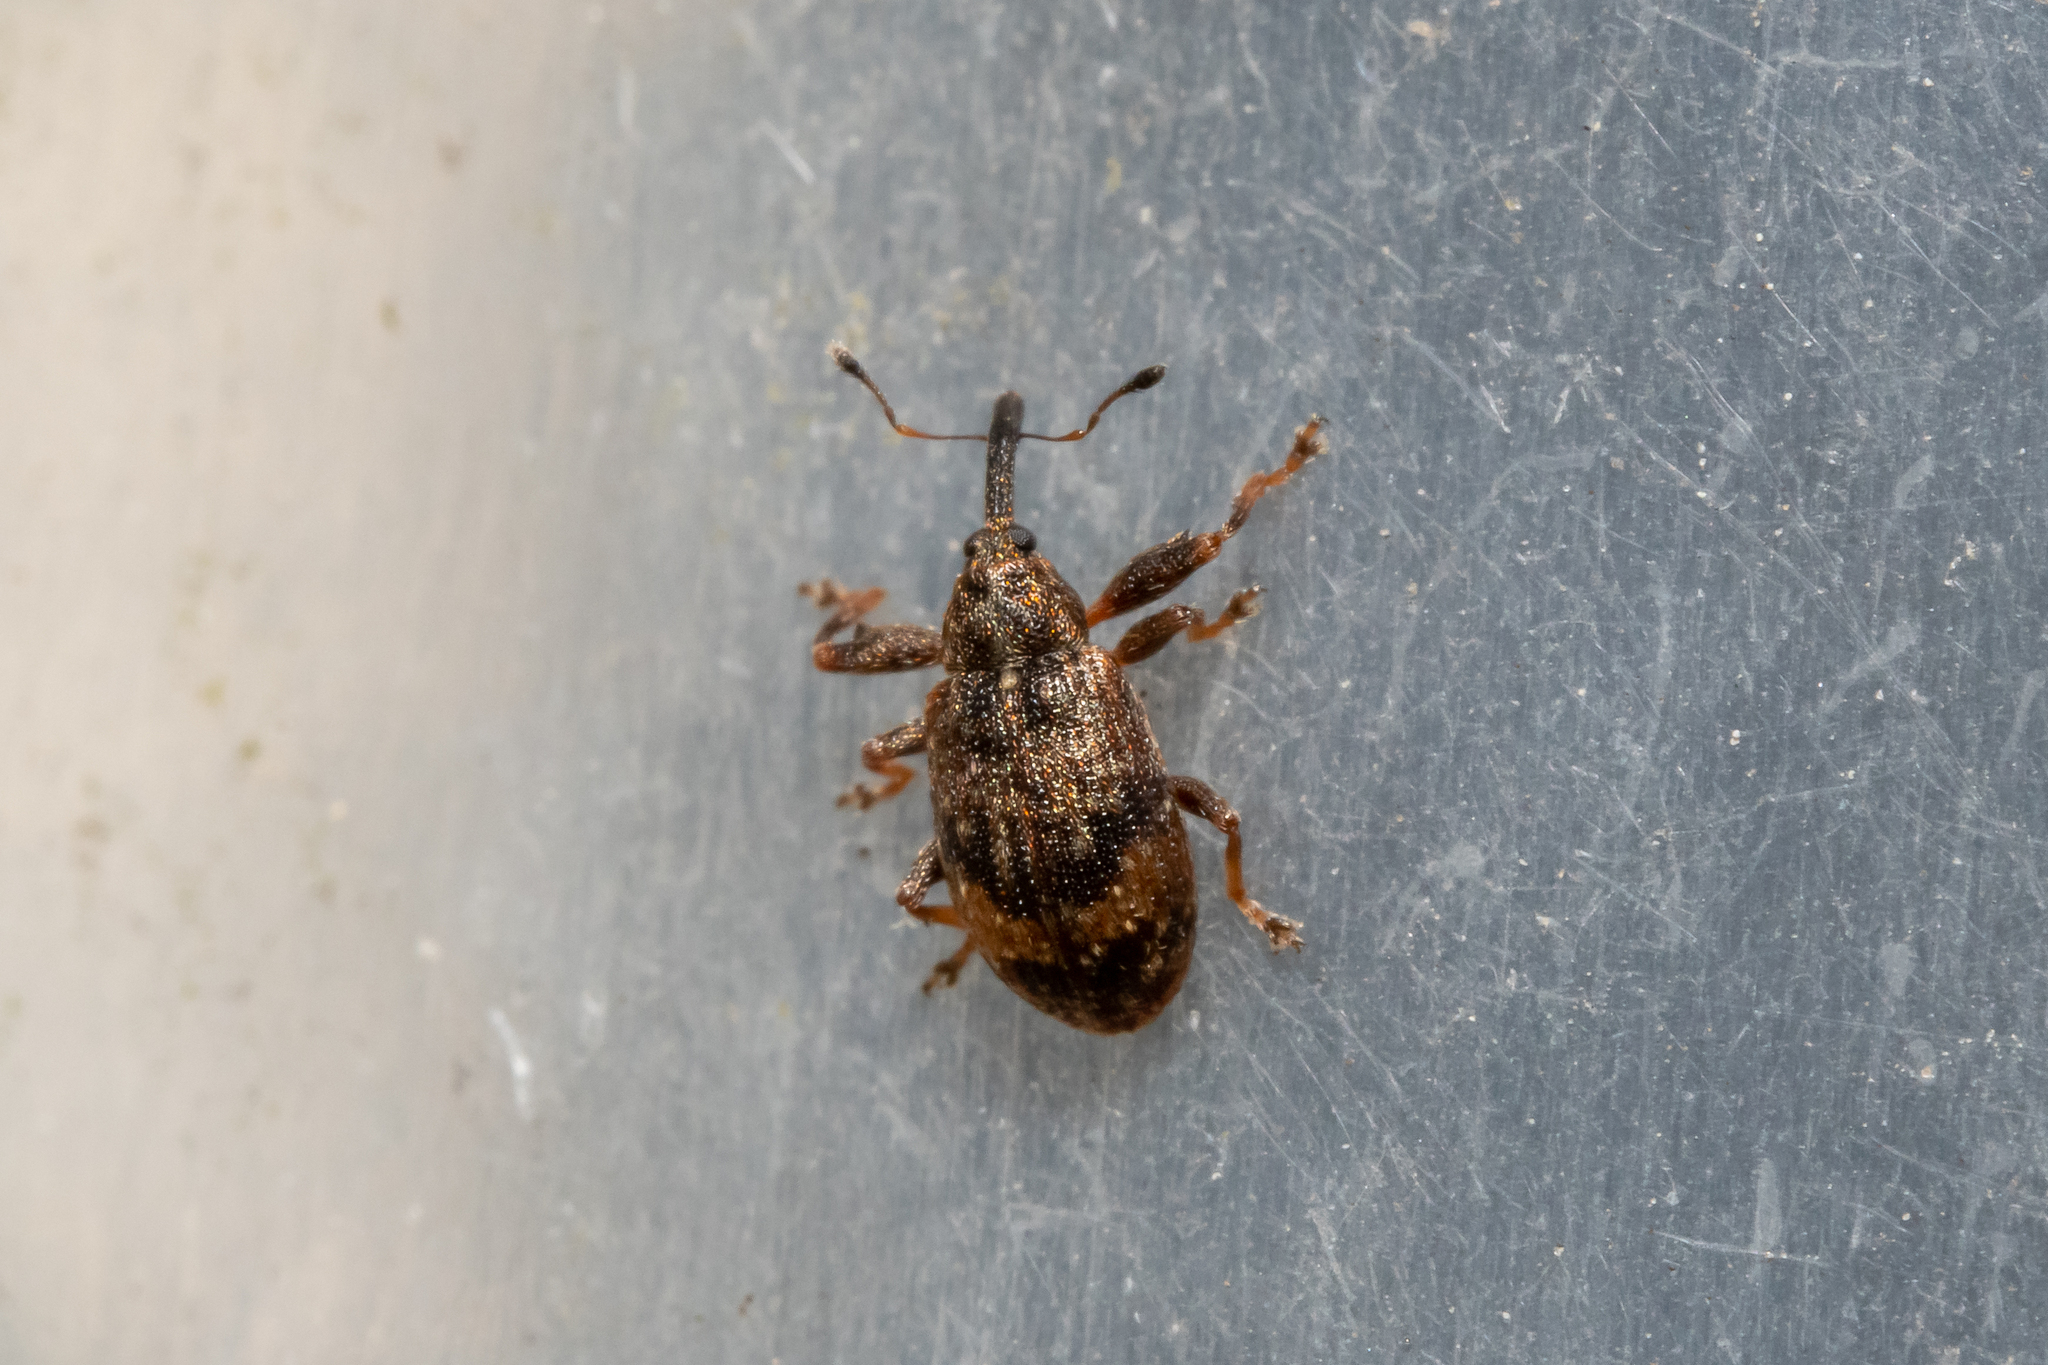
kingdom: Animalia
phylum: Arthropoda
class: Insecta
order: Coleoptera
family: Curculionidae
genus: Anthonomus
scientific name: Anthonomus pomorum
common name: Apple-blossom weevil
